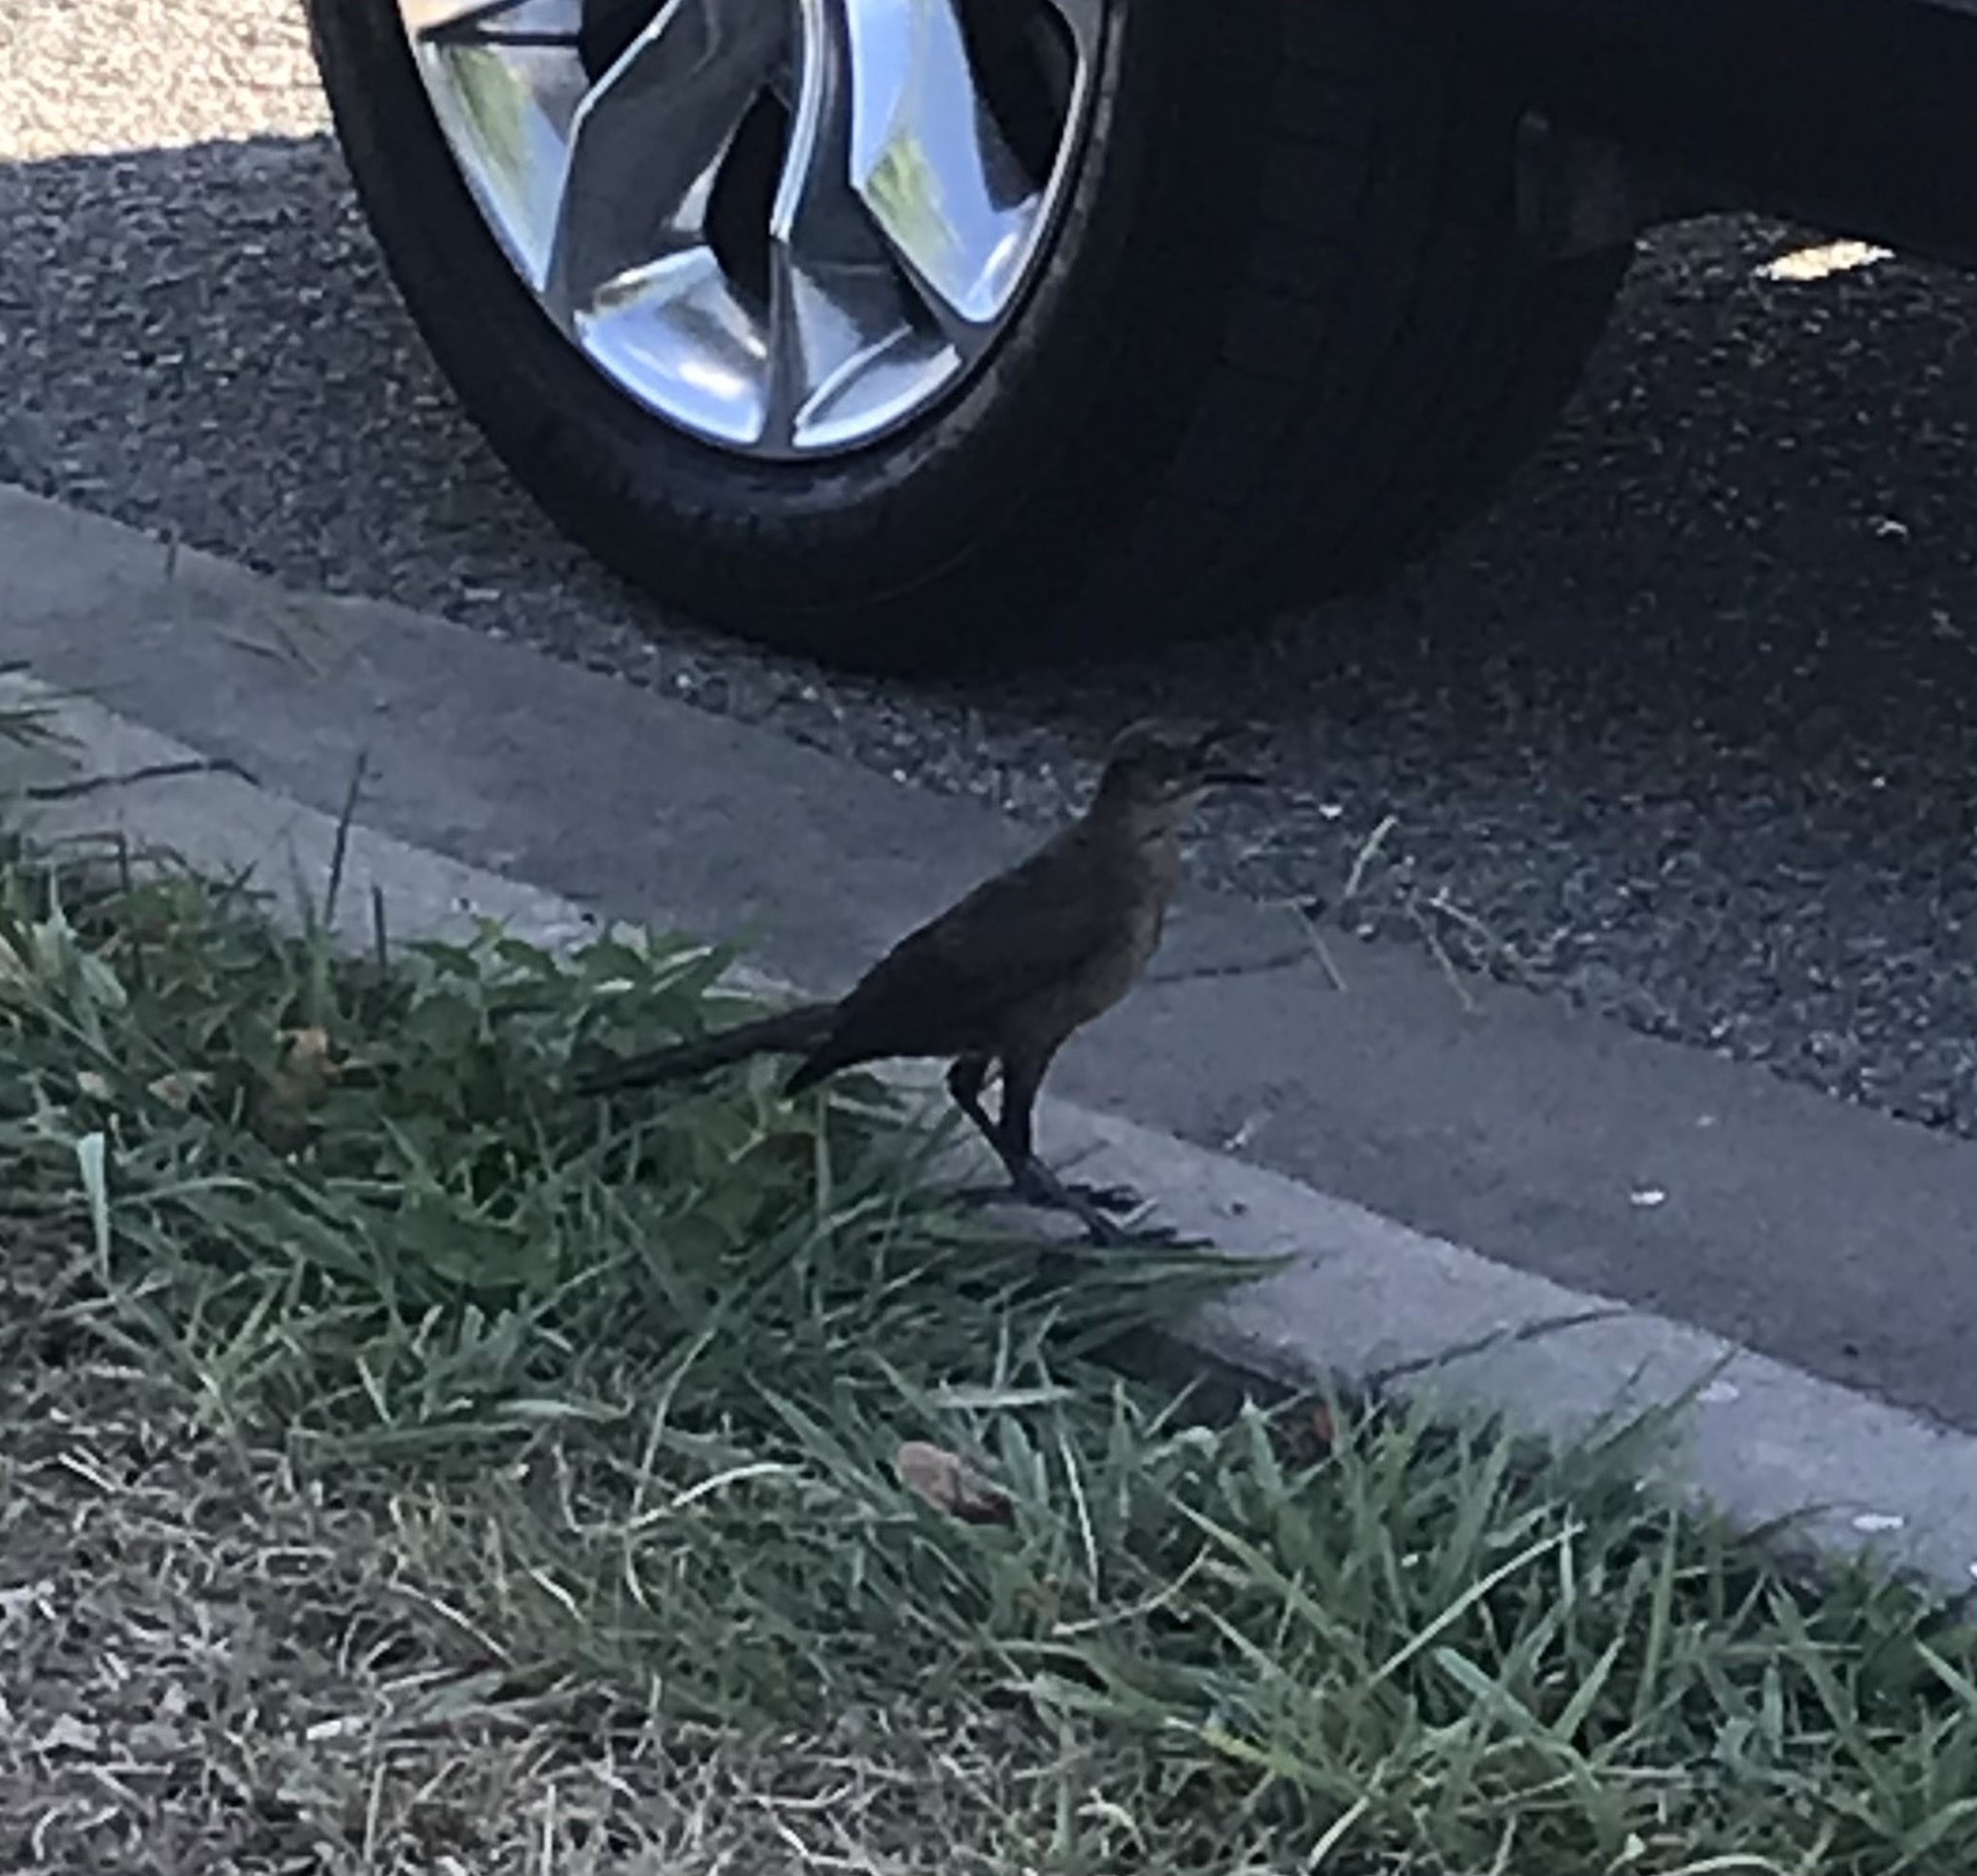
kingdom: Animalia
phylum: Chordata
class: Aves
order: Passeriformes
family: Icteridae
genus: Quiscalus
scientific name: Quiscalus mexicanus
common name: Great-tailed grackle
